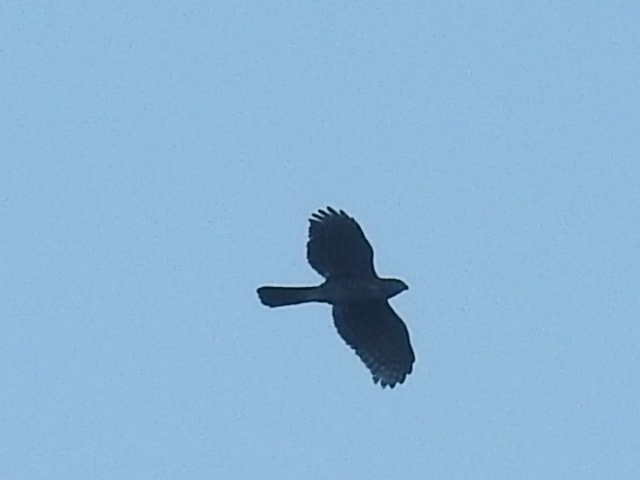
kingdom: Animalia
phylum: Chordata
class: Aves
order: Accipitriformes
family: Accipitridae
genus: Accipiter
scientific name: Accipiter trivirgatus
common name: Crested goshawk
